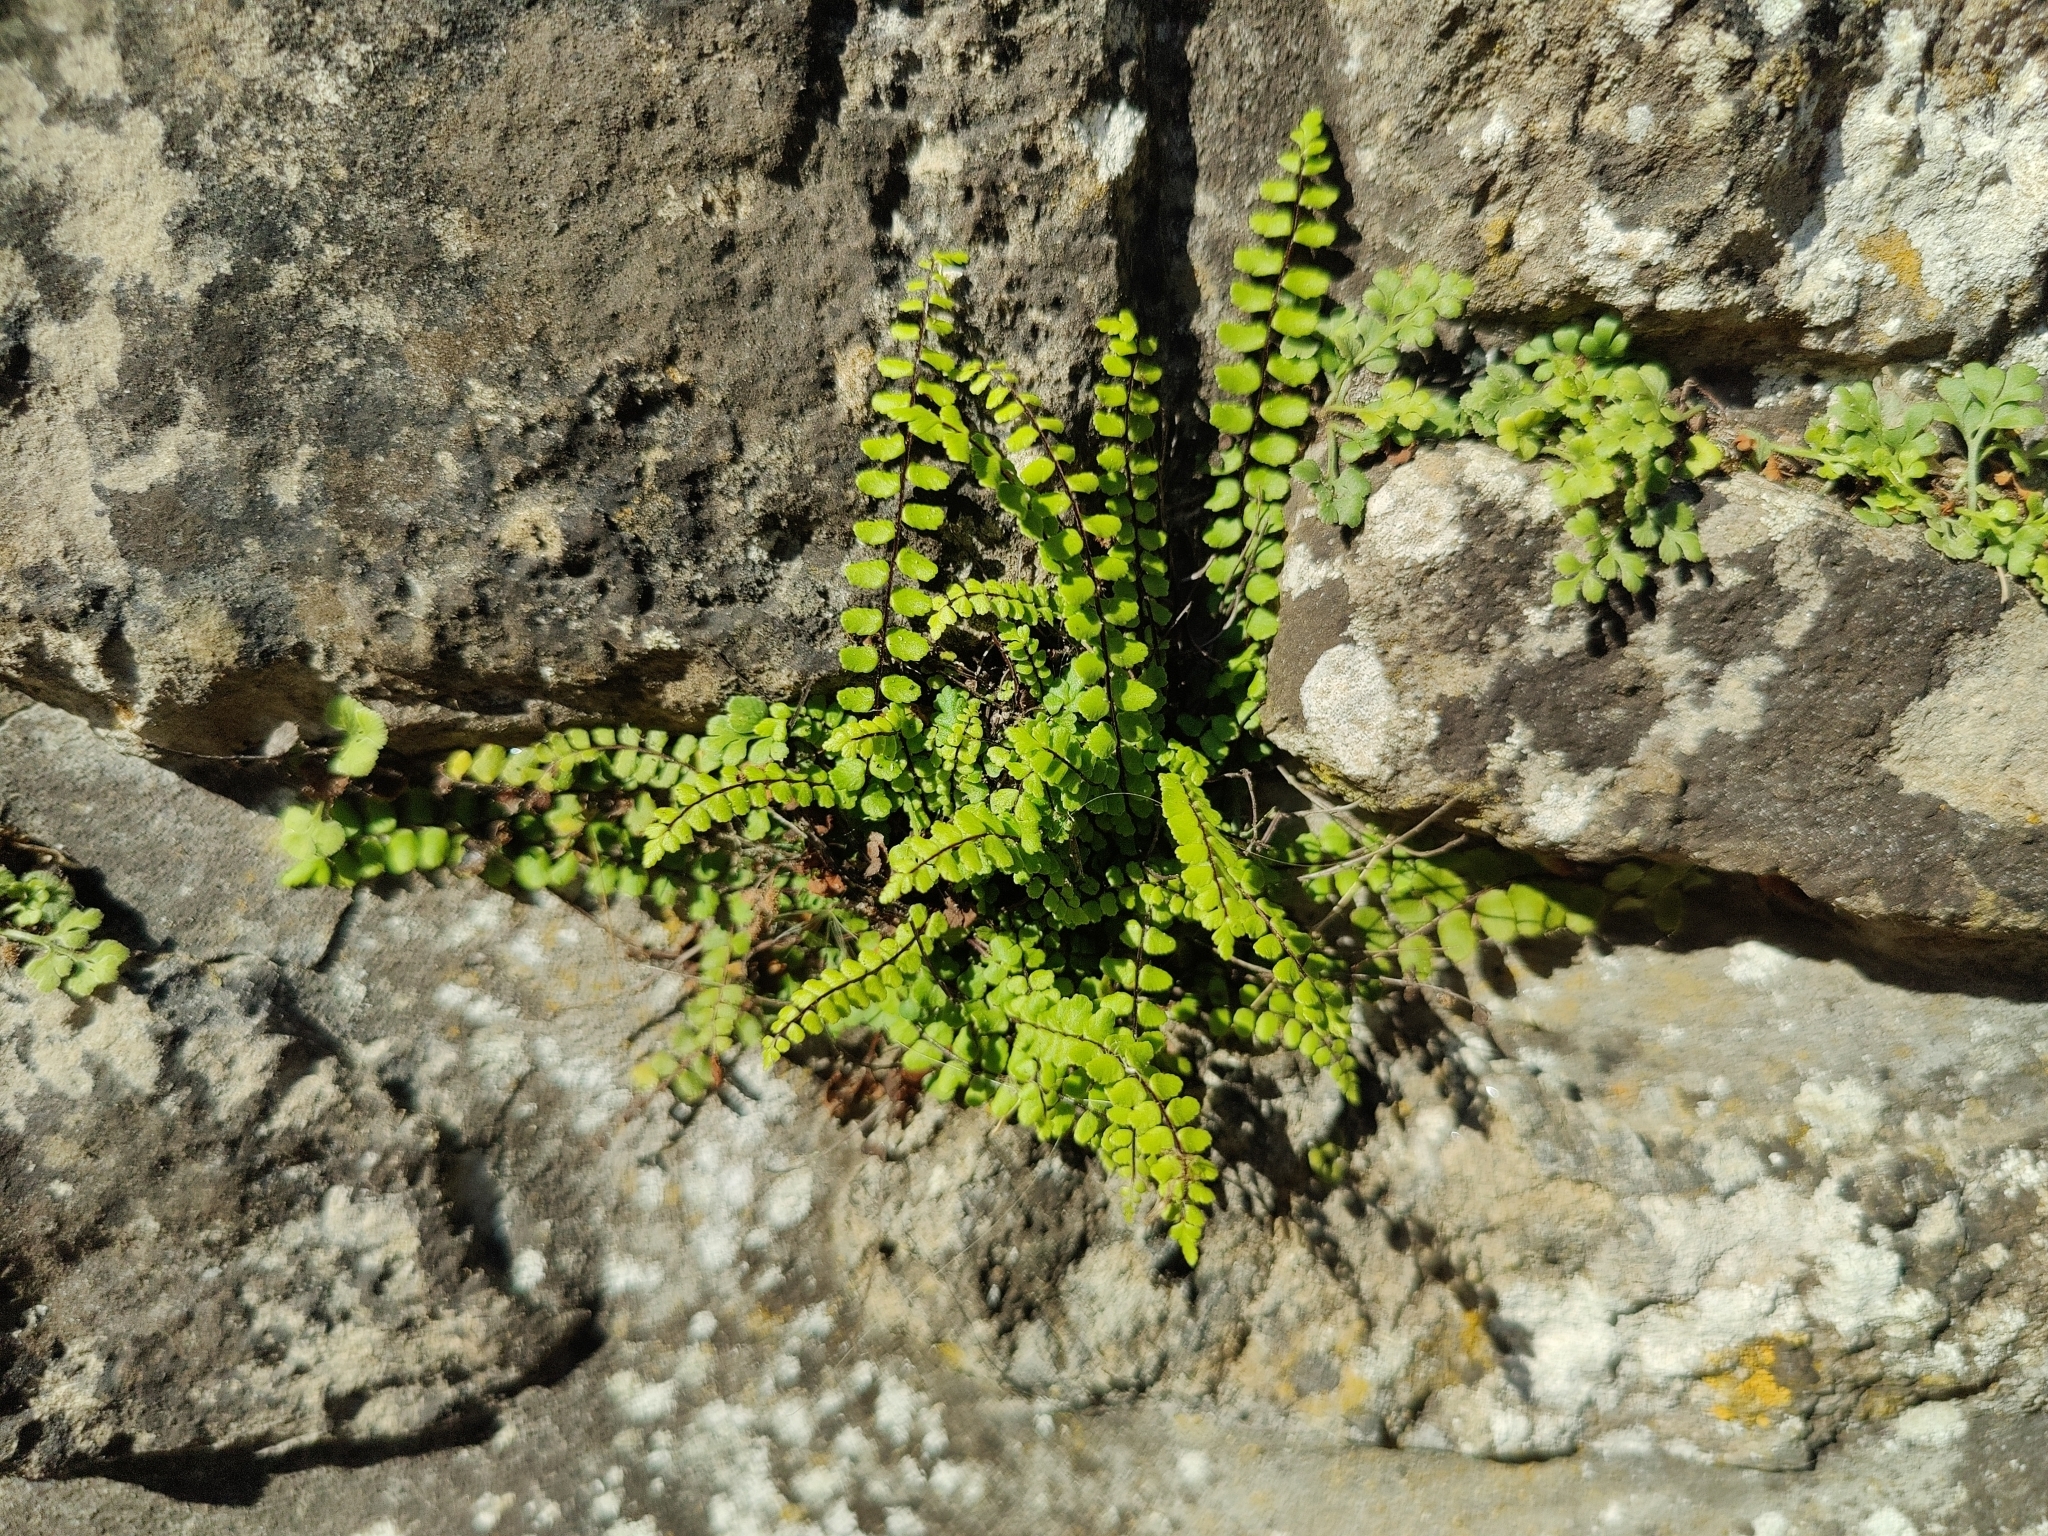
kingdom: Plantae
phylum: Tracheophyta
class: Polypodiopsida
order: Polypodiales
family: Aspleniaceae
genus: Asplenium
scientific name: Asplenium trichomanes
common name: Maidenhair spleenwort
